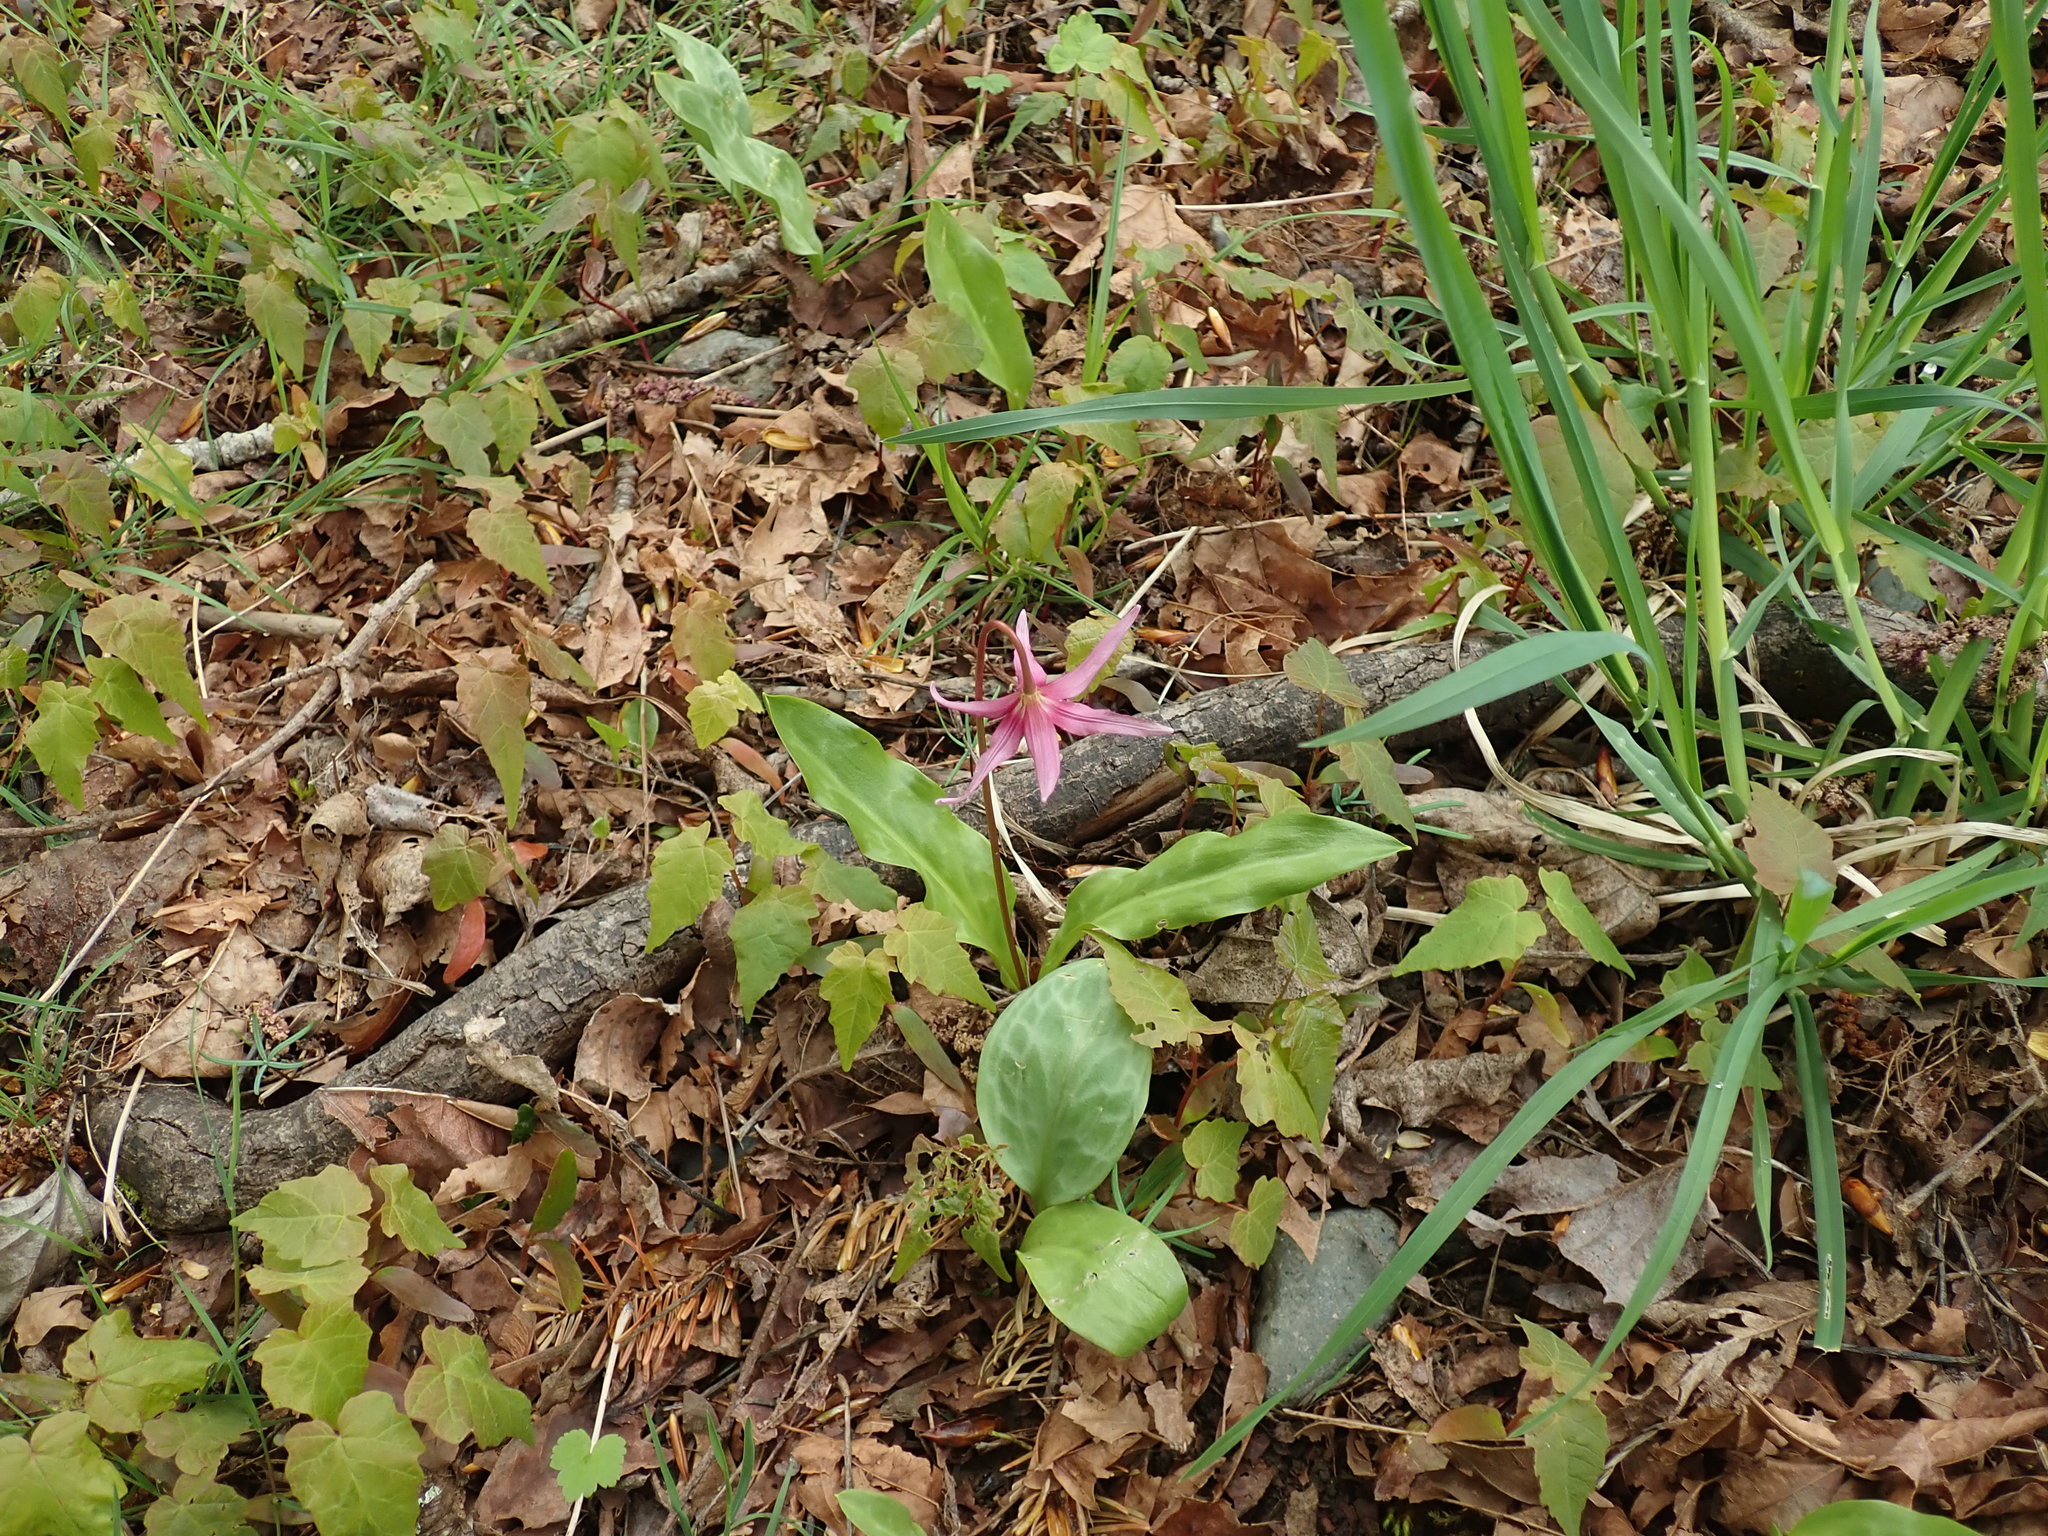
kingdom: Plantae
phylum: Tracheophyta
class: Liliopsida
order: Liliales
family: Liliaceae
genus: Erythronium
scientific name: Erythronium revolutum
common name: Pink fawn-lily
